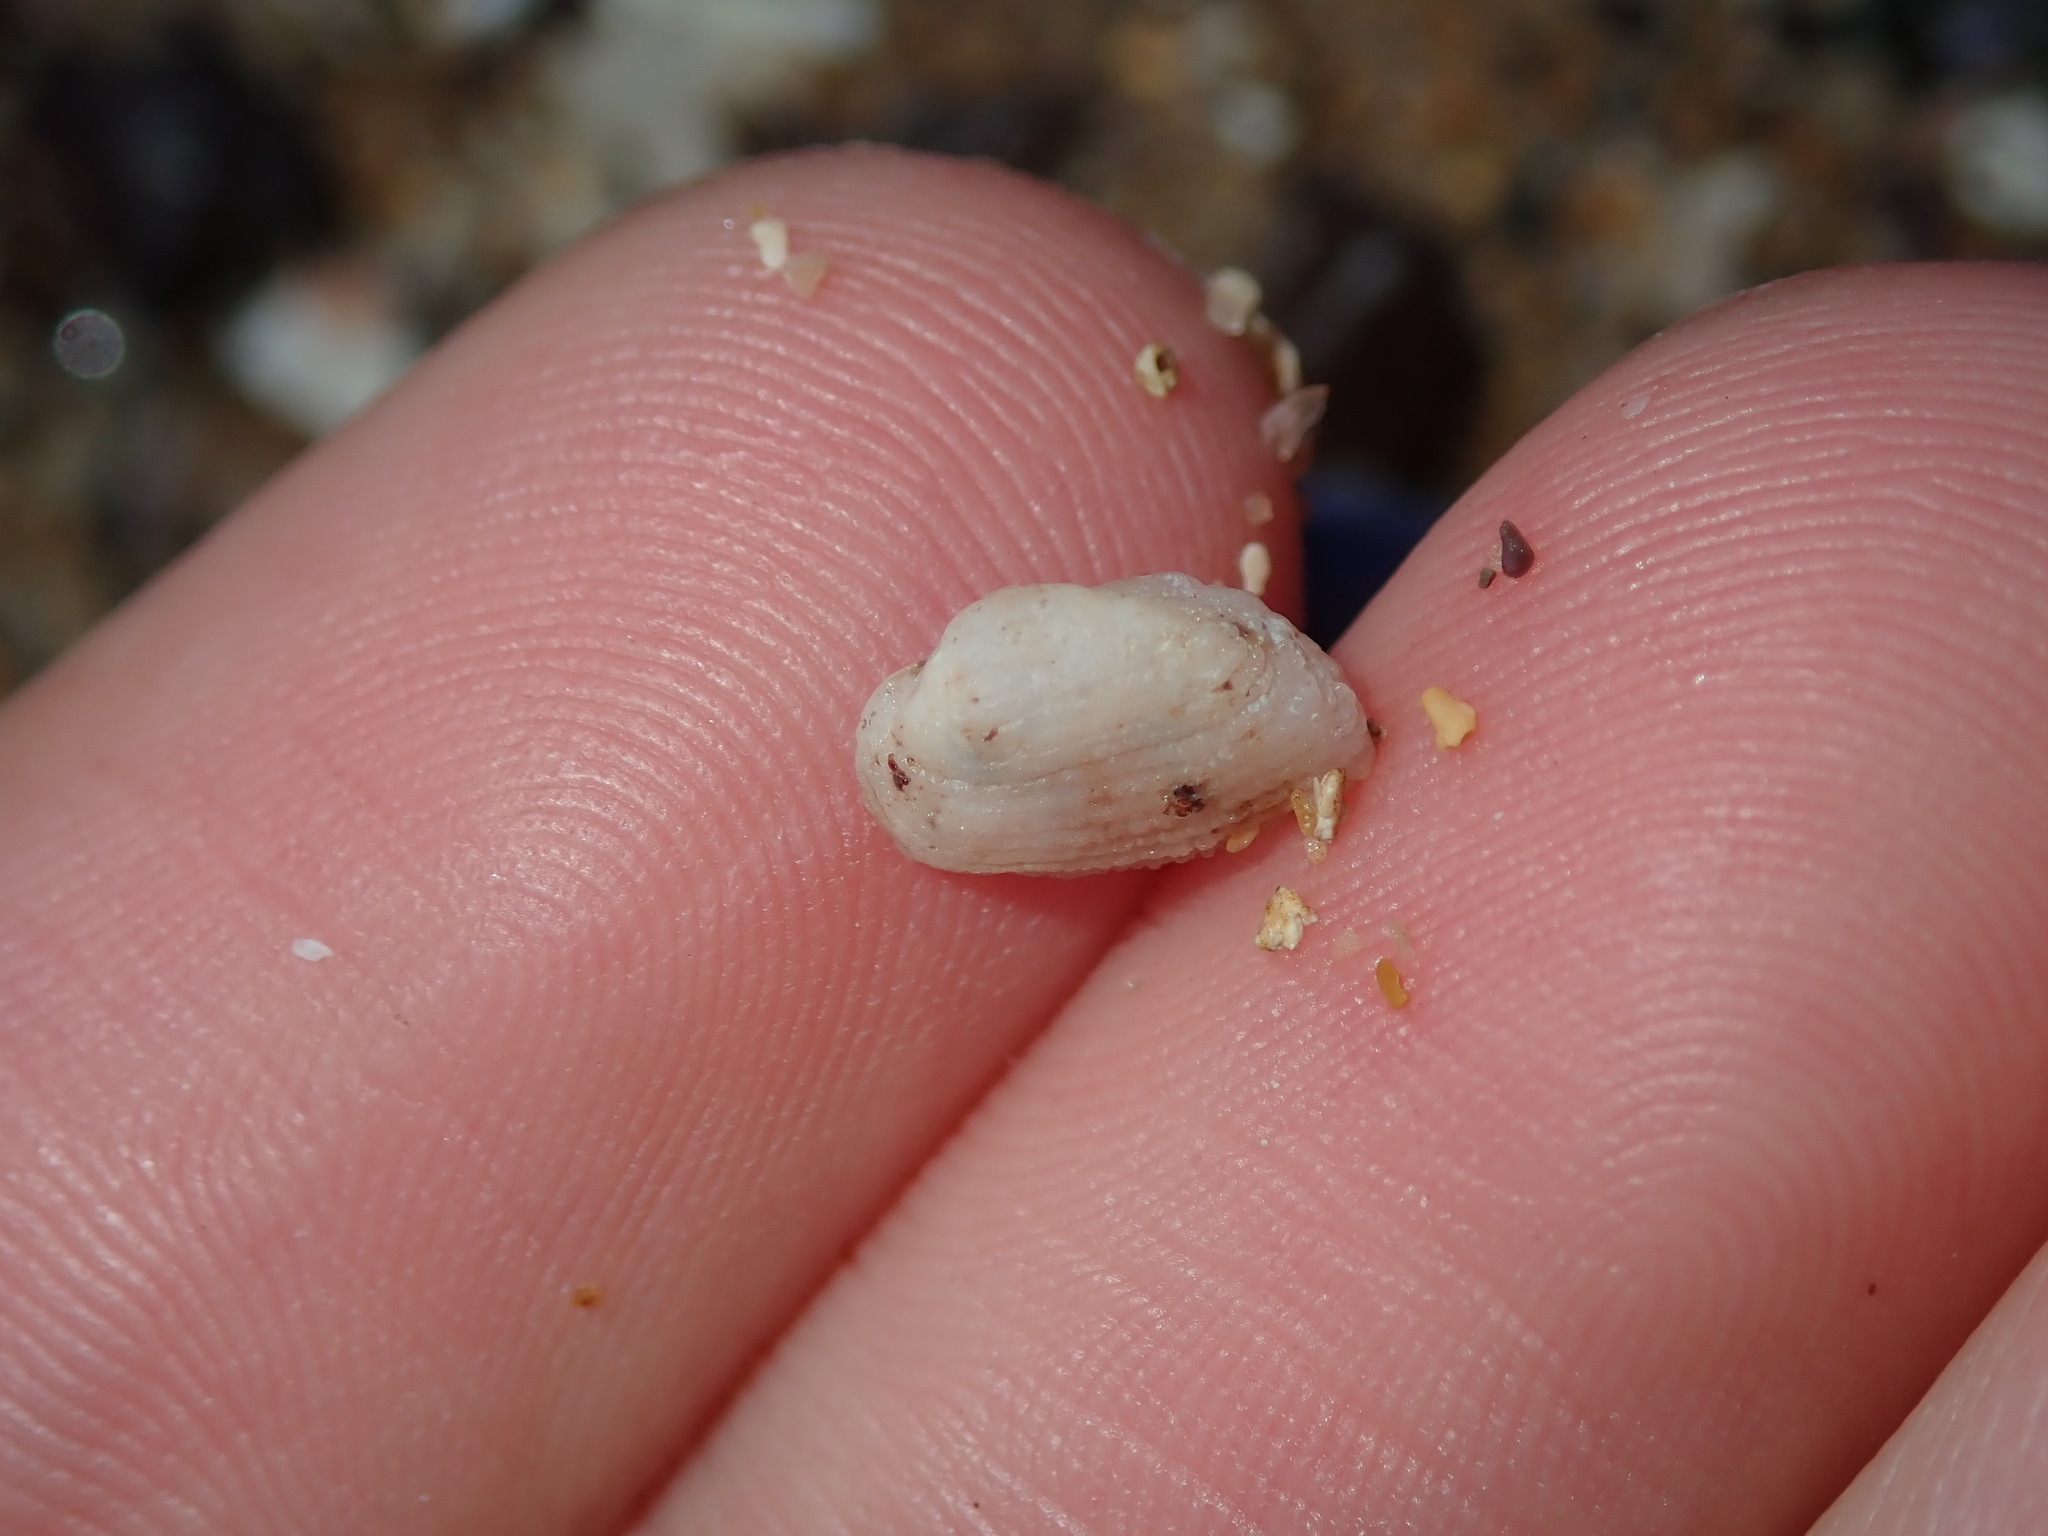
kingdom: Animalia
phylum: Mollusca
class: Bivalvia
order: Arcida
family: Arcidae
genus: Acar
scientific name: Acar botanica
